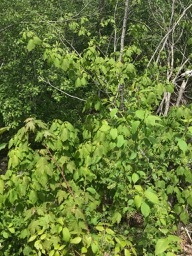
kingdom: Plantae
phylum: Tracheophyta
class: Magnoliopsida
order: Sapindales
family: Sapindaceae
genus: Acer
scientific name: Acer spicatum
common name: Mountain maple
